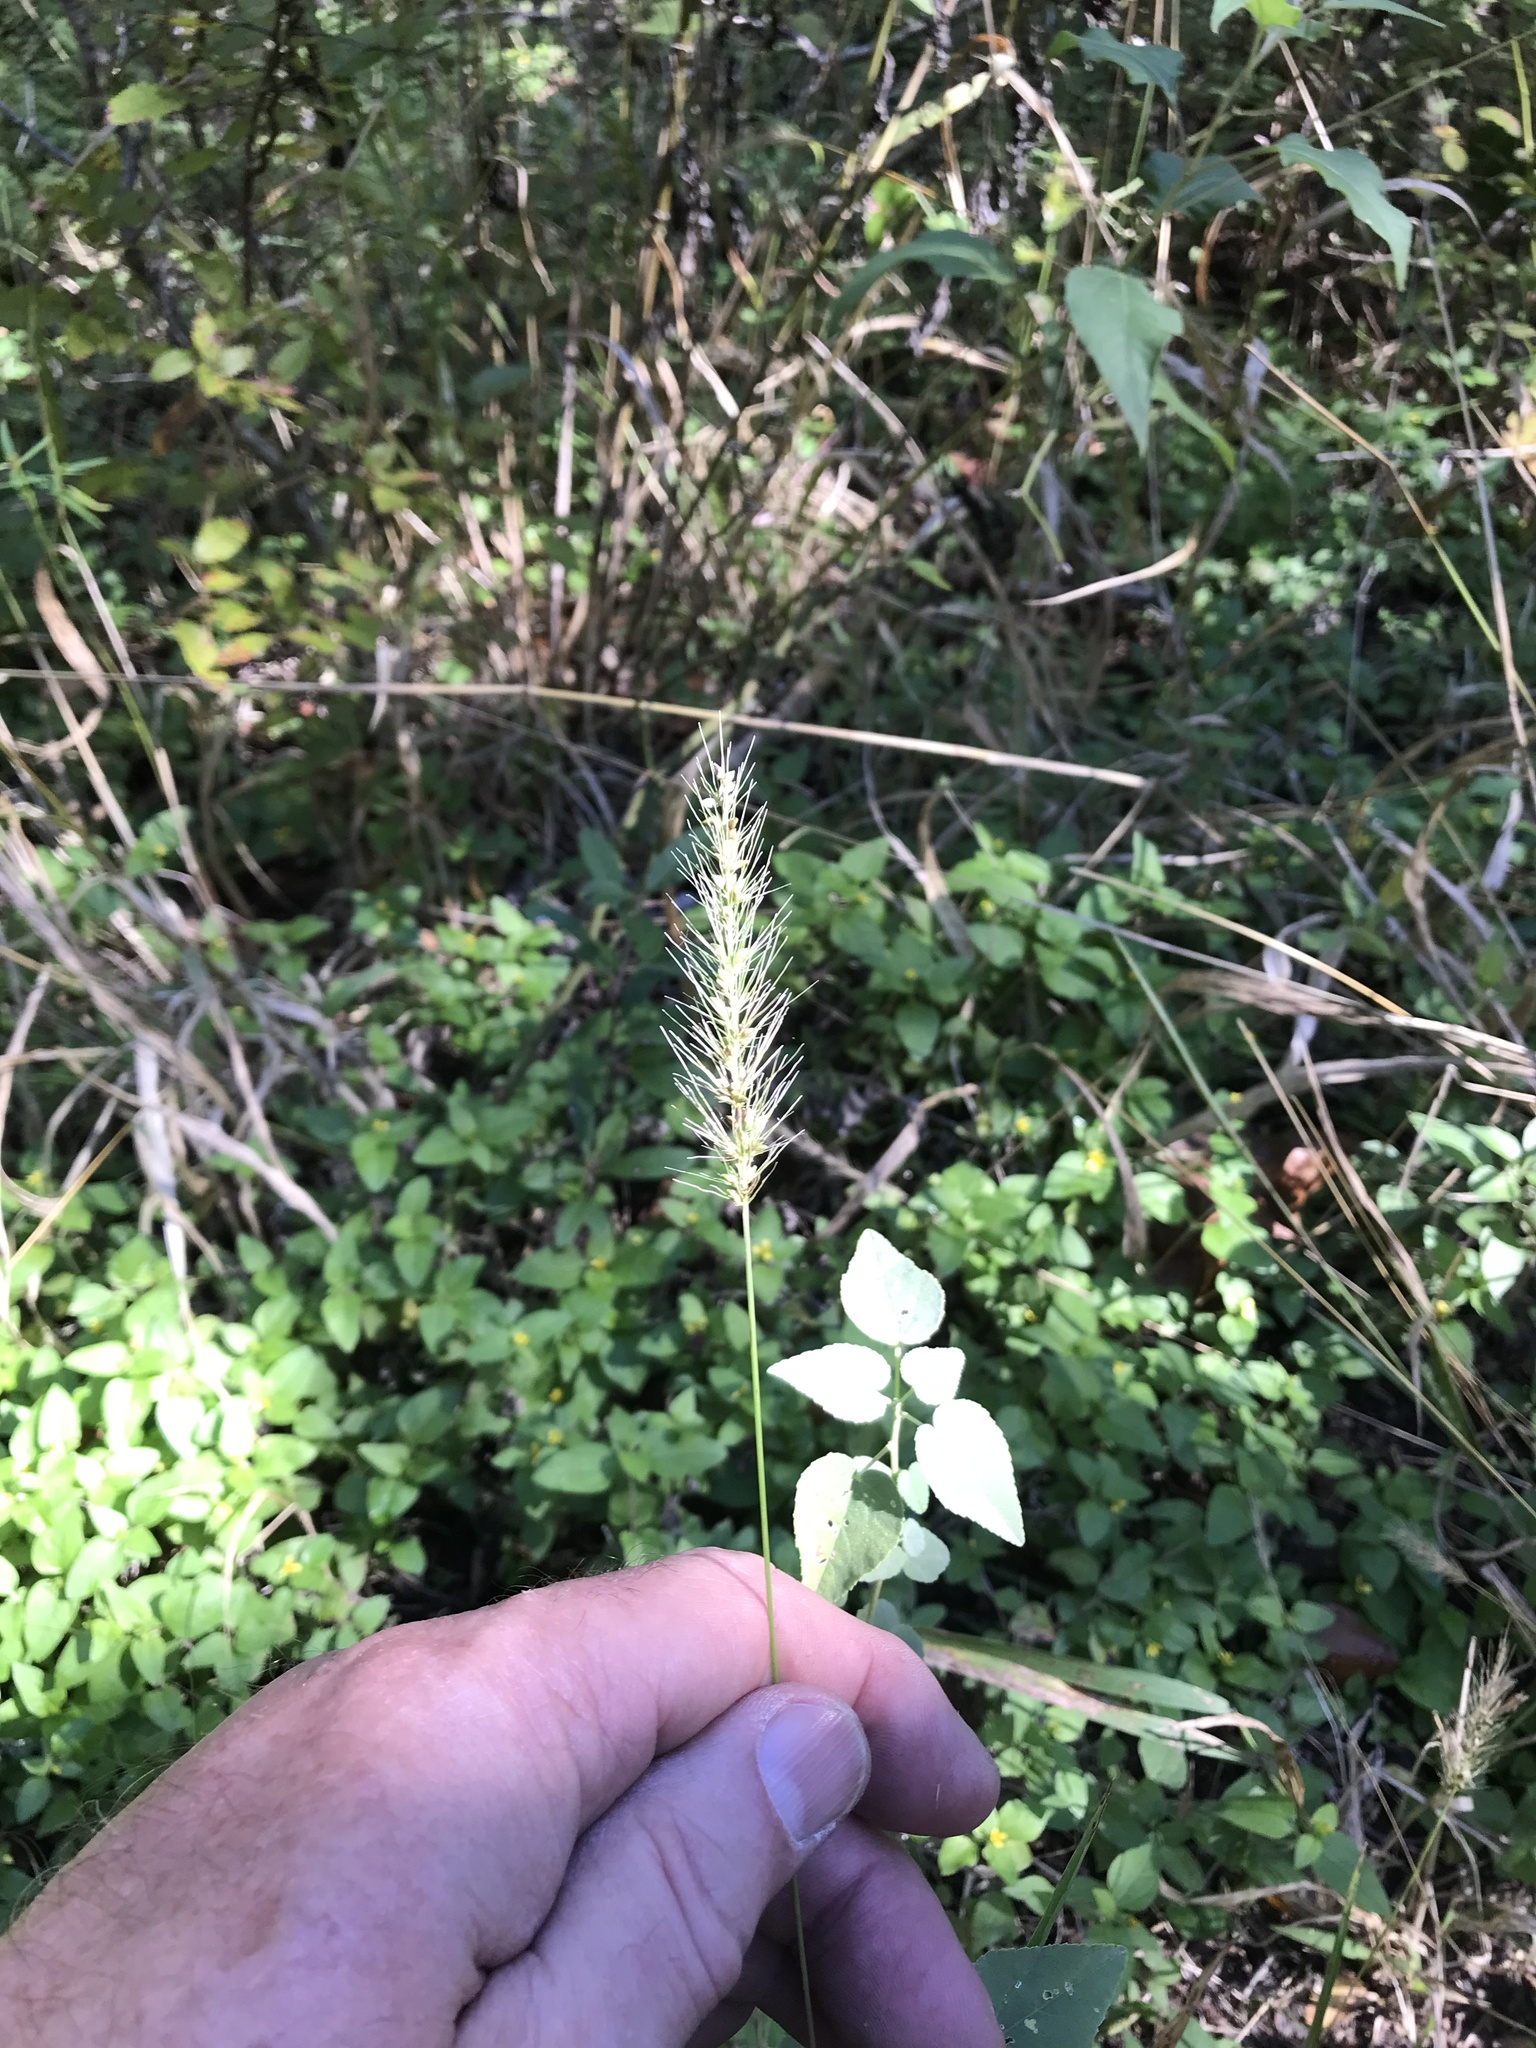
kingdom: Plantae
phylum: Tracheophyta
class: Liliopsida
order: Poales
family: Poaceae
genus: Setaria
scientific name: Setaria
